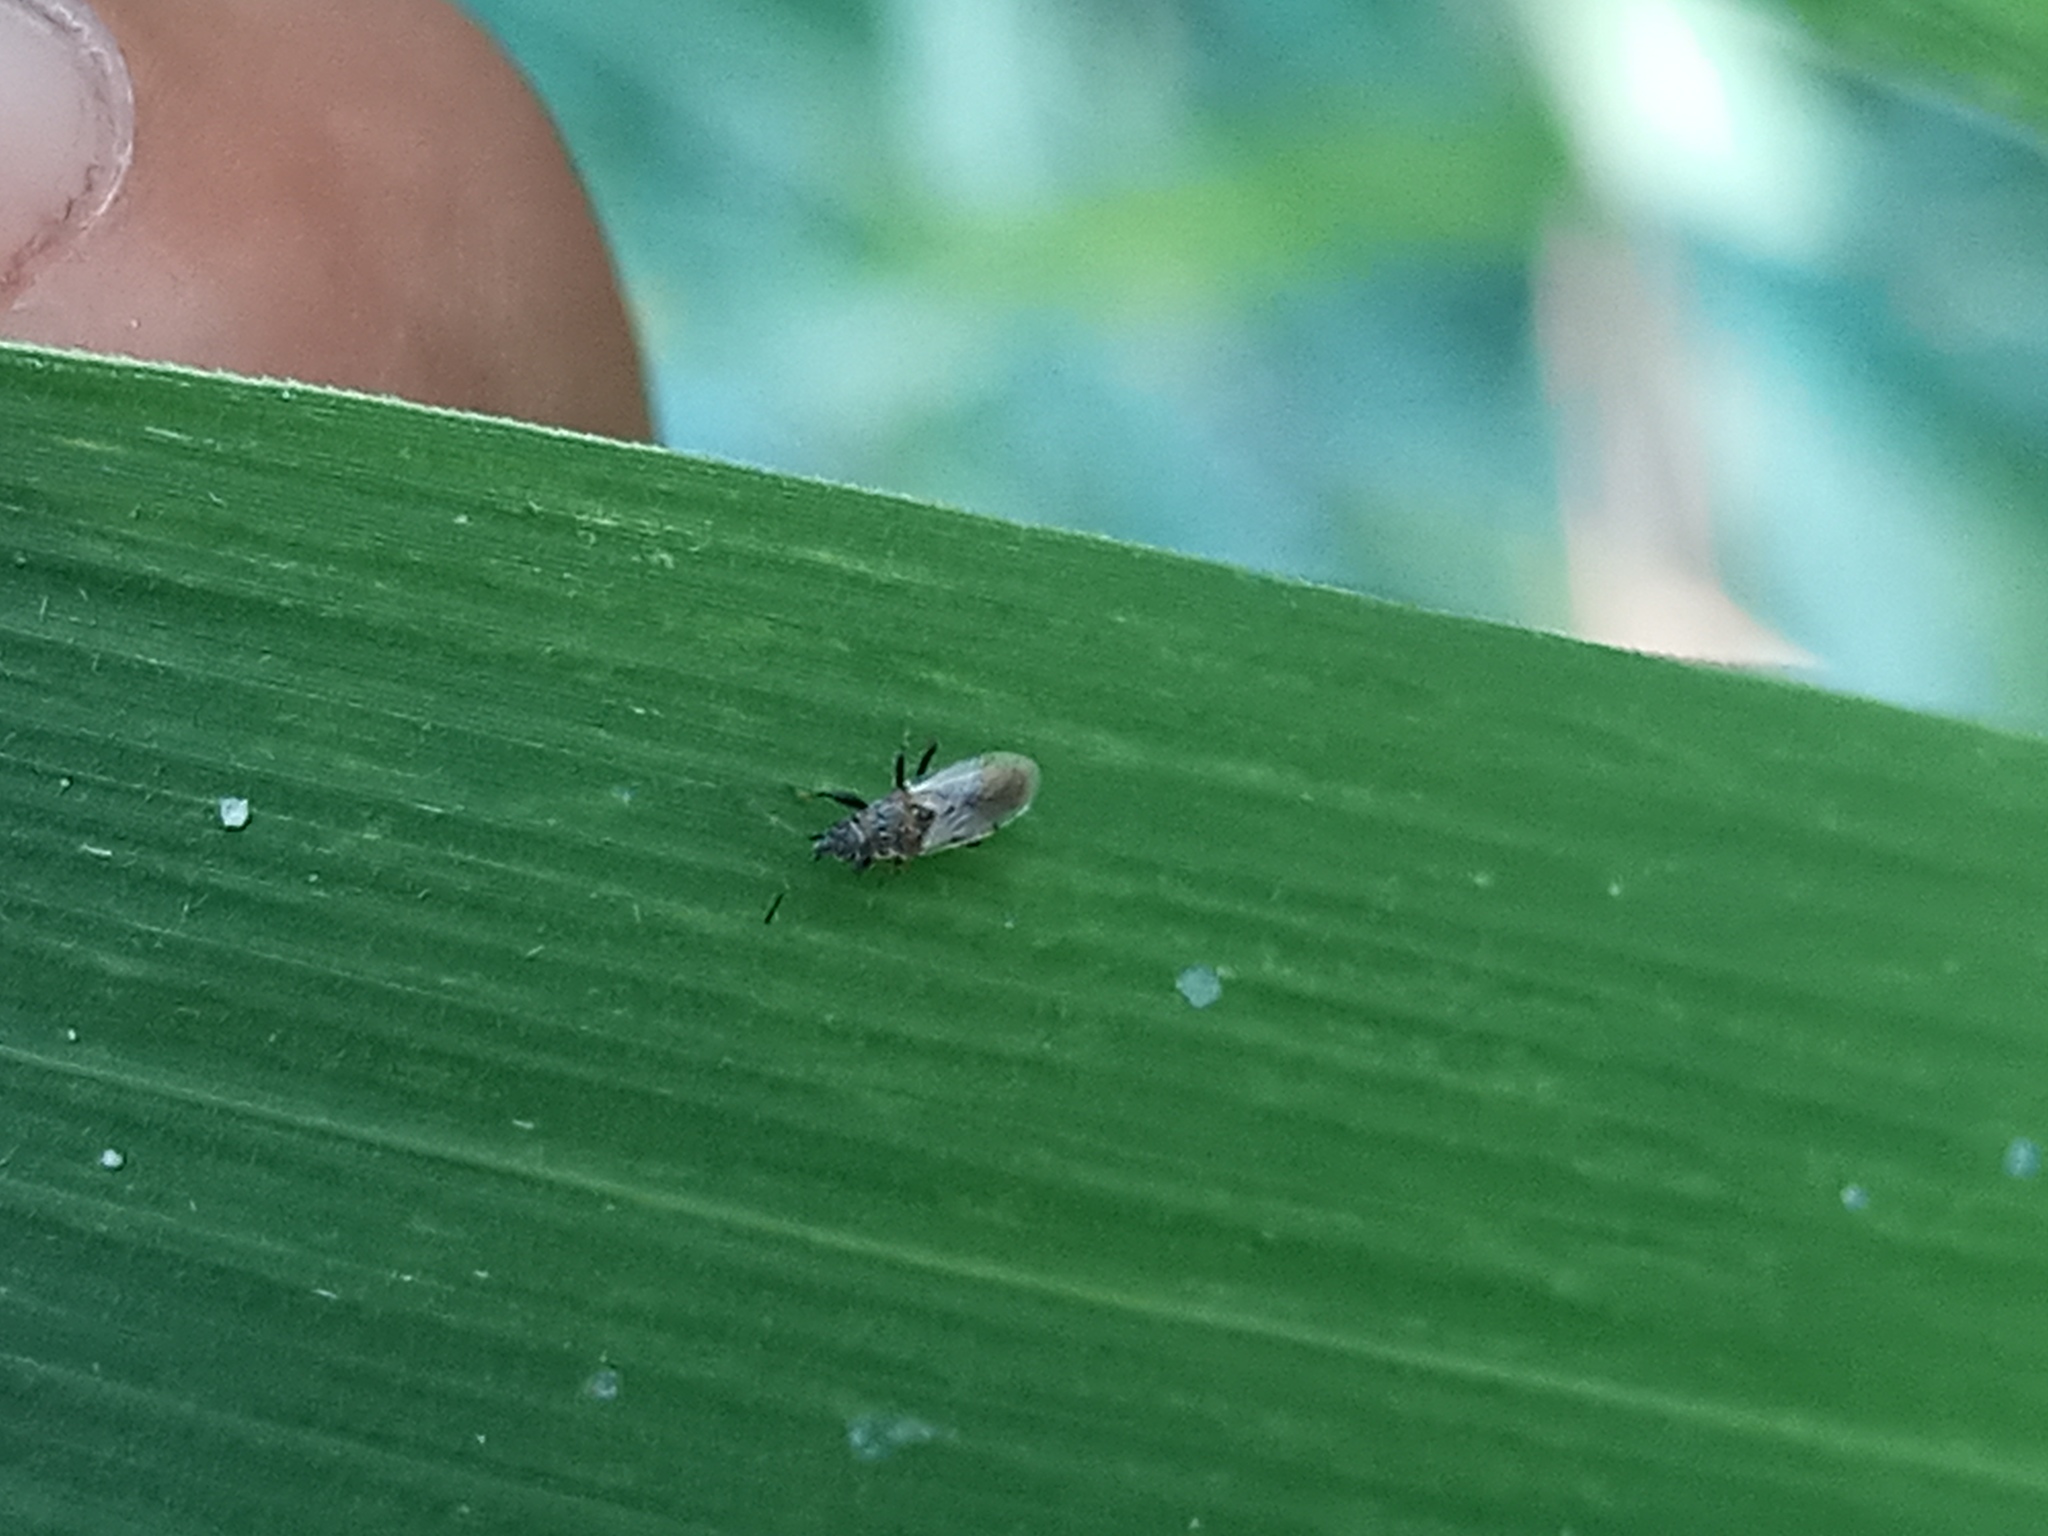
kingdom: Animalia
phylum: Arthropoda
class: Insecta
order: Hemiptera
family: Oxycarenidae
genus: Oxycarenus
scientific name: Oxycarenus hyalinipennis
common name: Cotton seed bug
